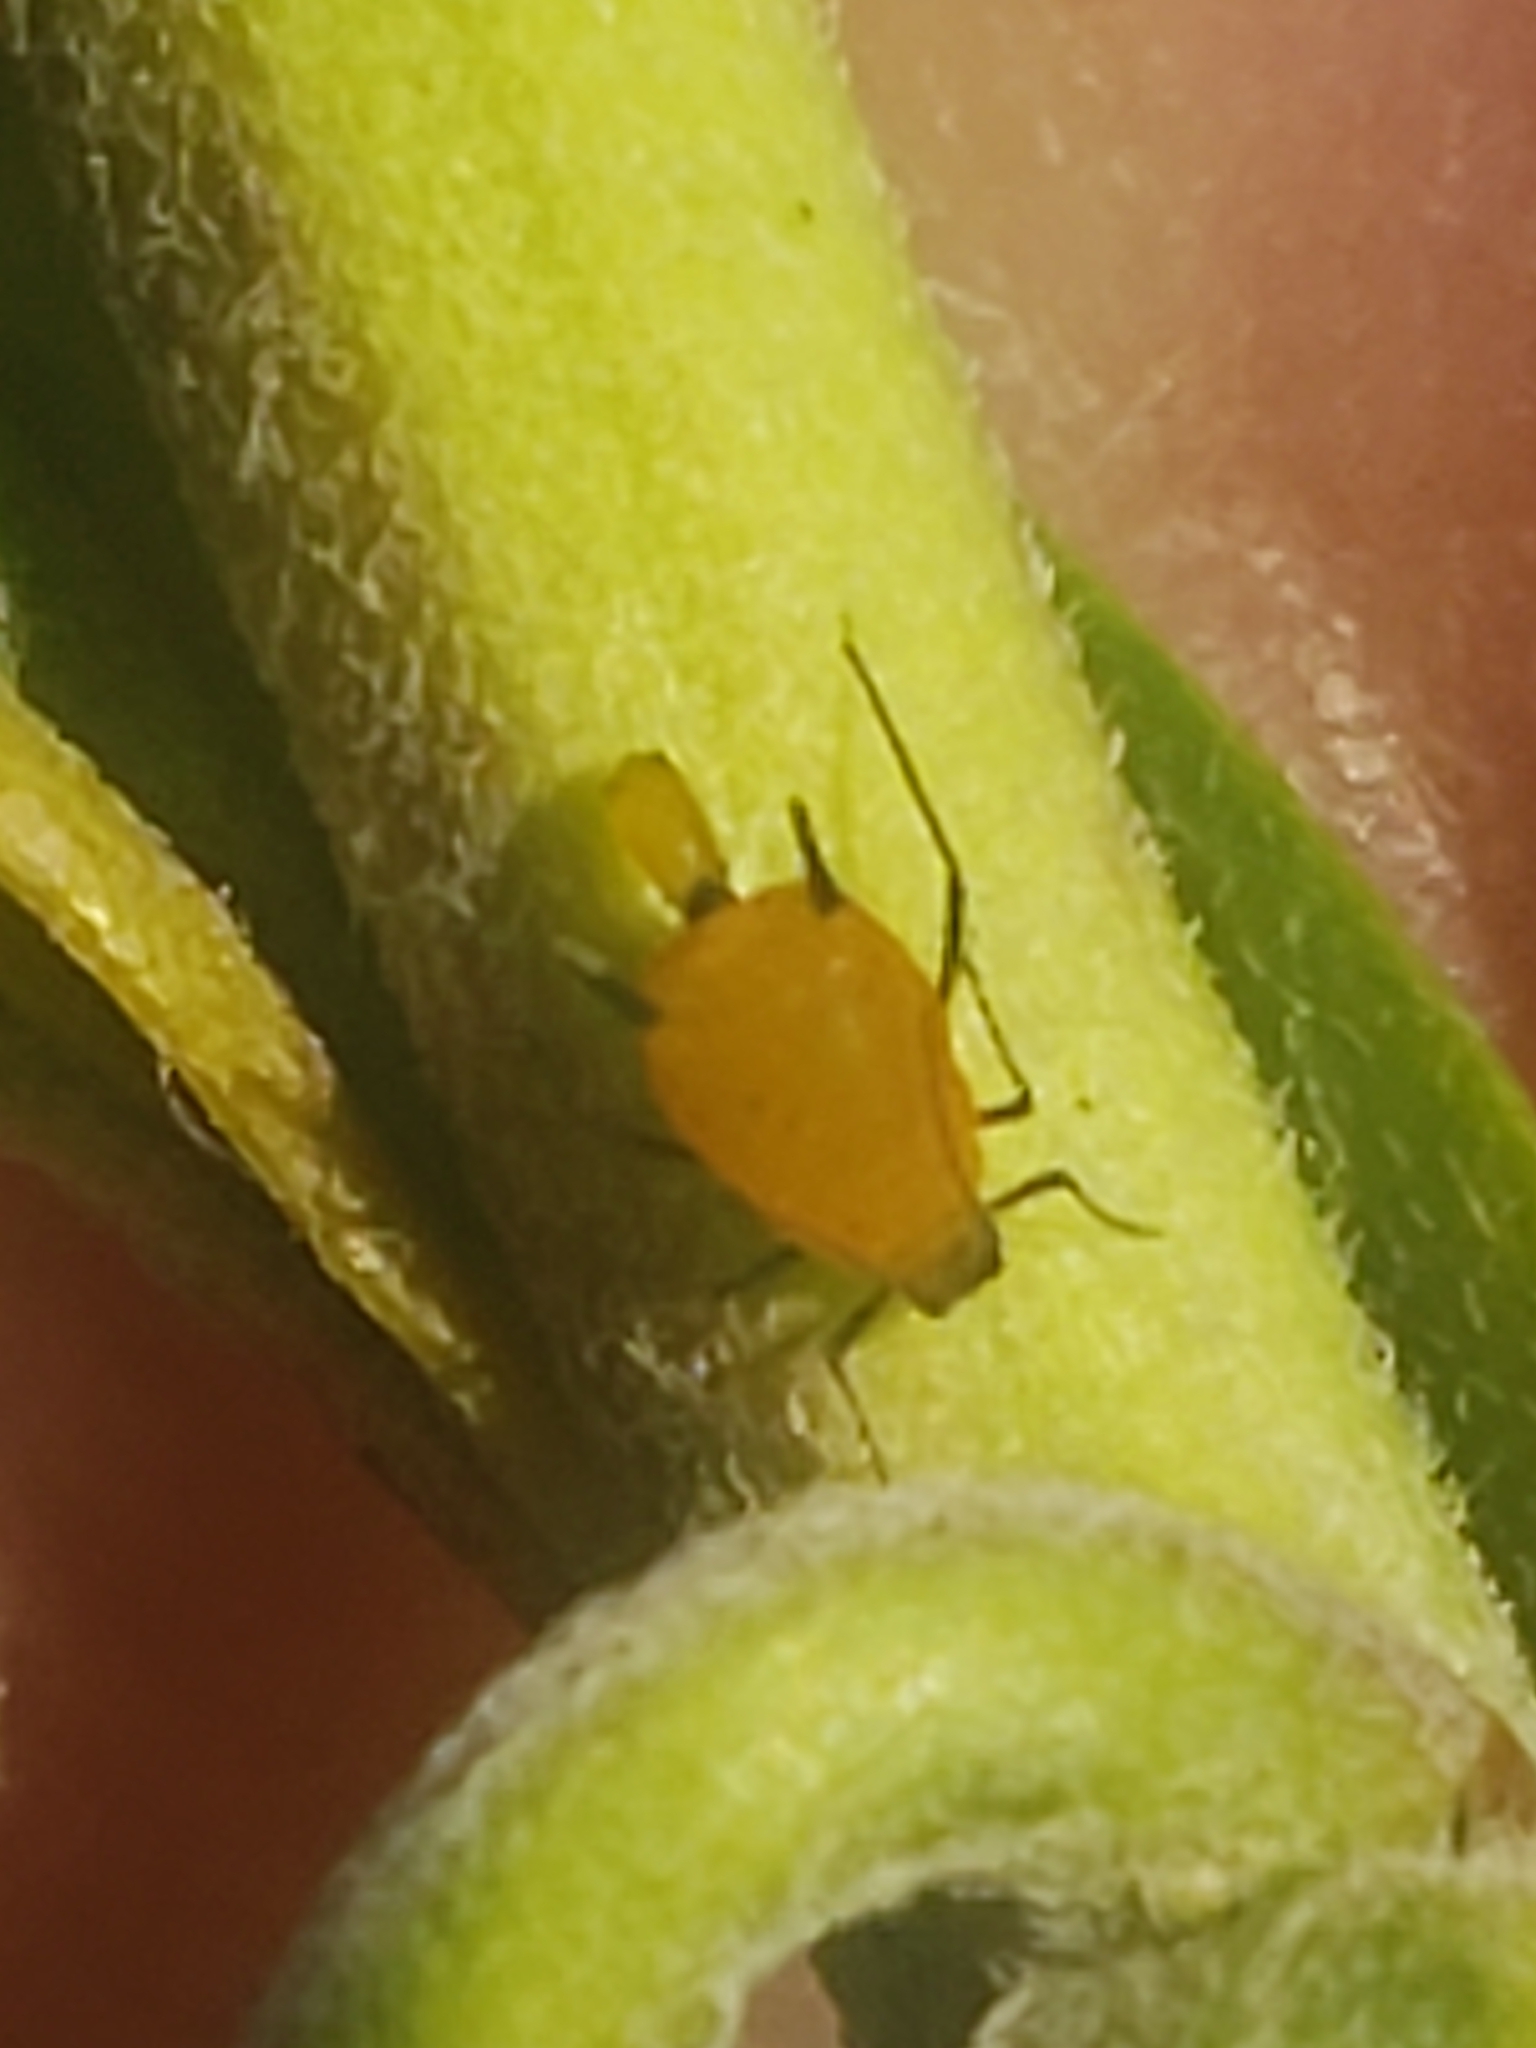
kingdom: Animalia
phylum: Arthropoda
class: Insecta
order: Hemiptera
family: Aphididae
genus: Aphis
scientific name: Aphis nerii
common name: Oleander aphid
